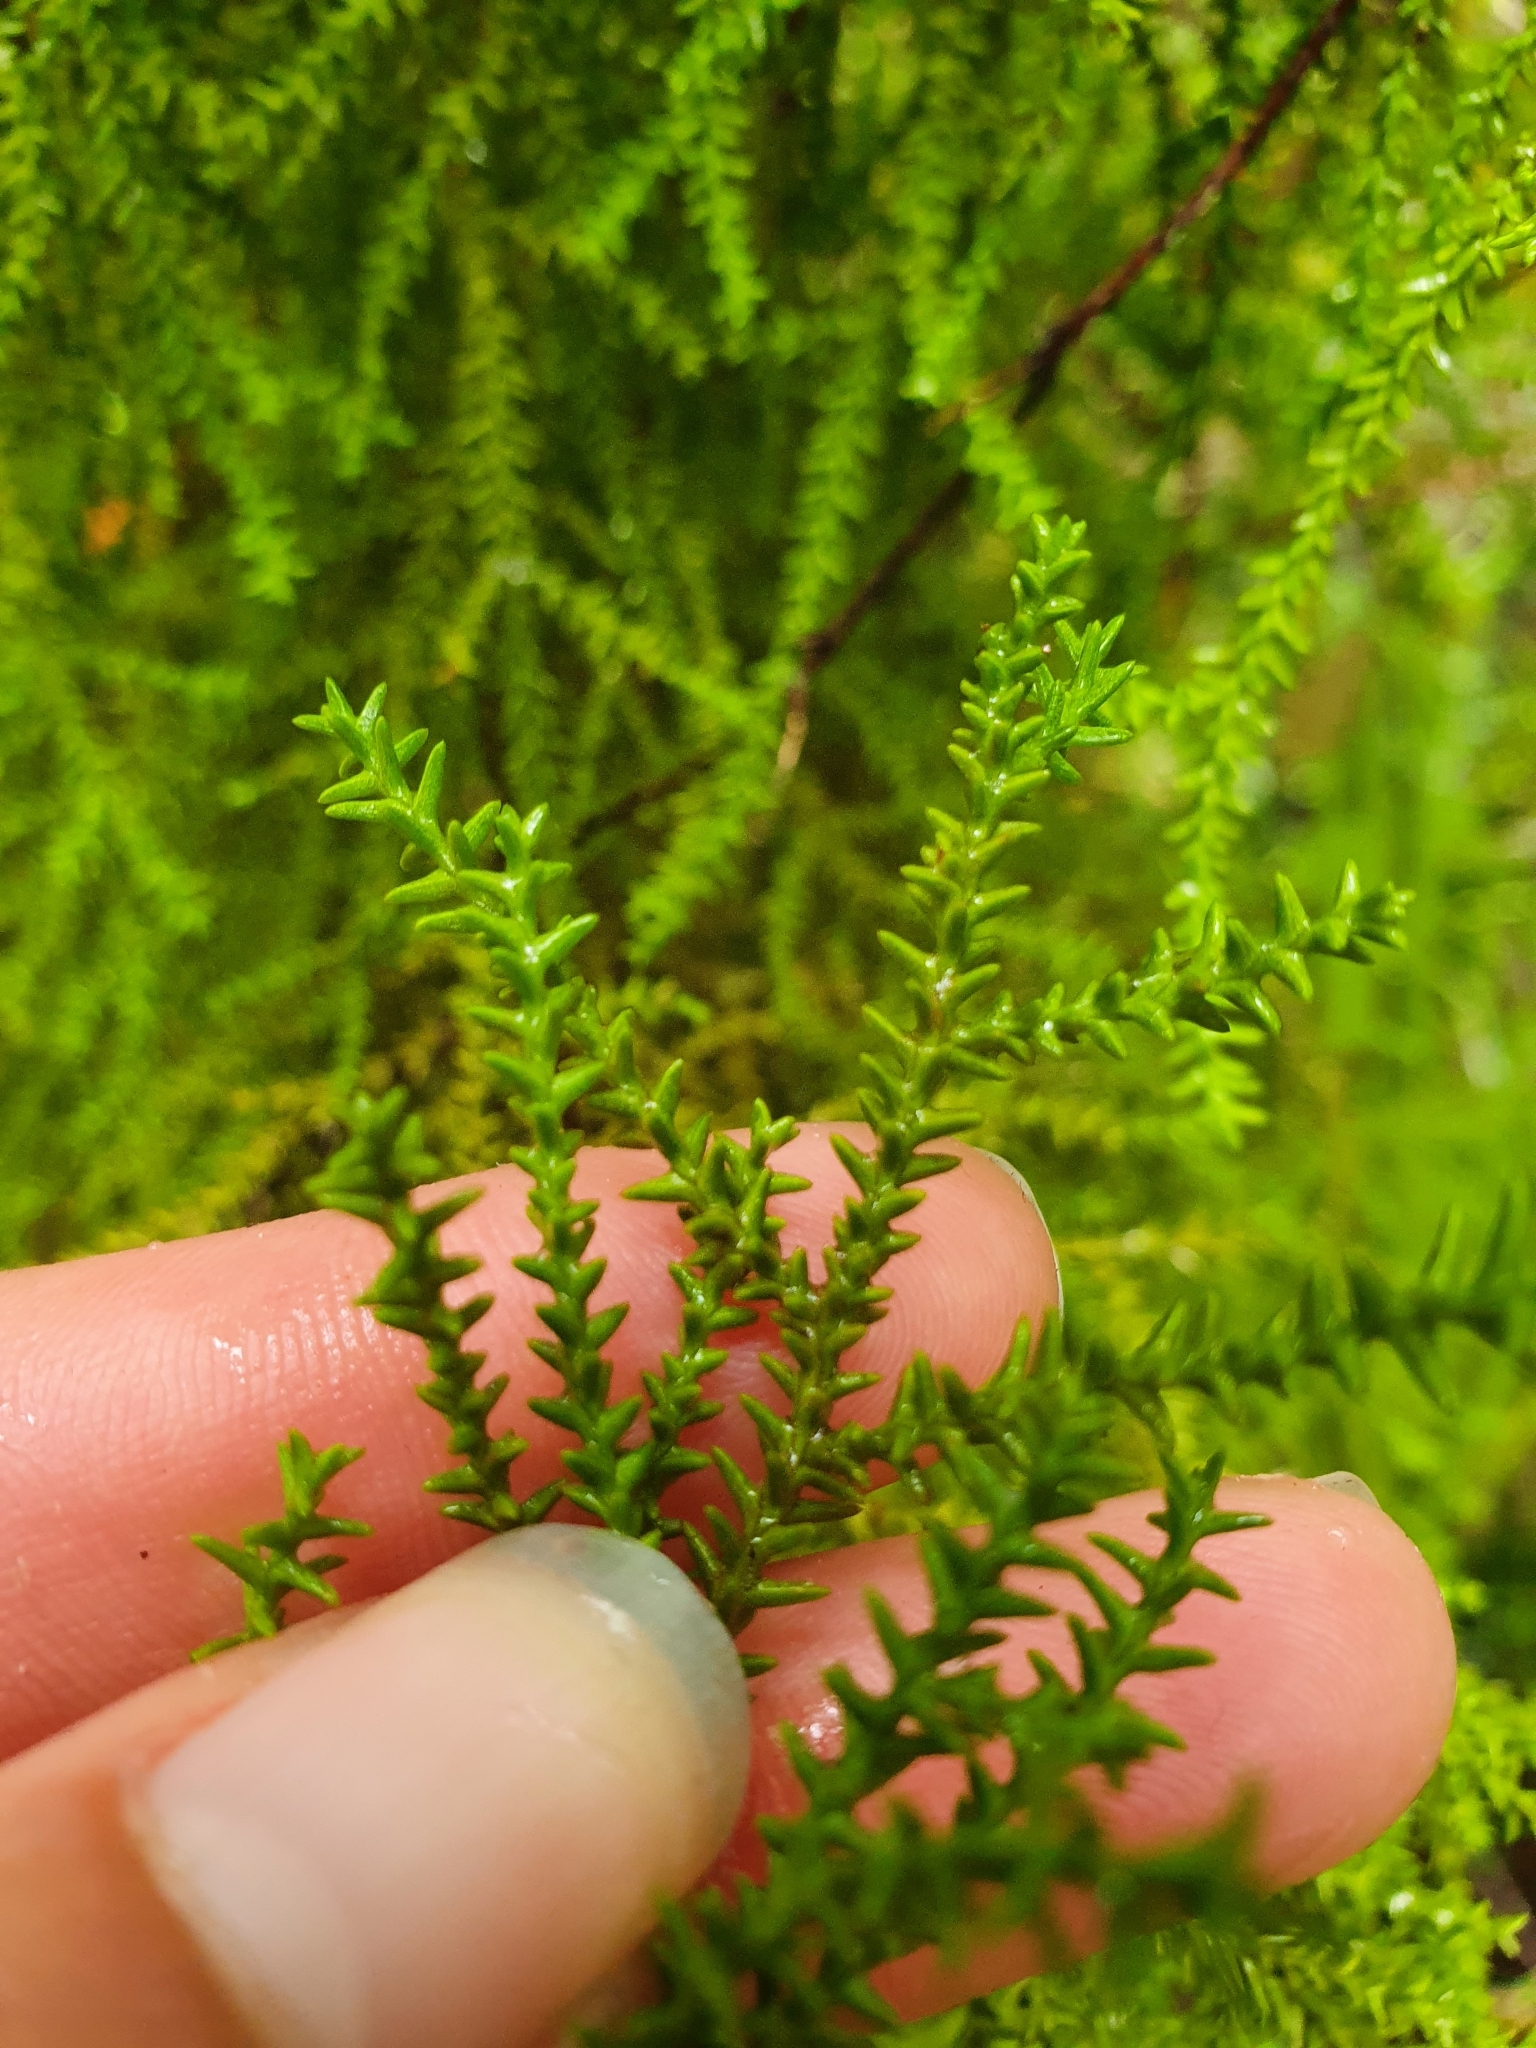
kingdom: Plantae
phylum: Tracheophyta
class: Pinopsida
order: Pinales
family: Podocarpaceae
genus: Lepidothamnus
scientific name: Lepidothamnus intermedius
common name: Yellow silver pine
